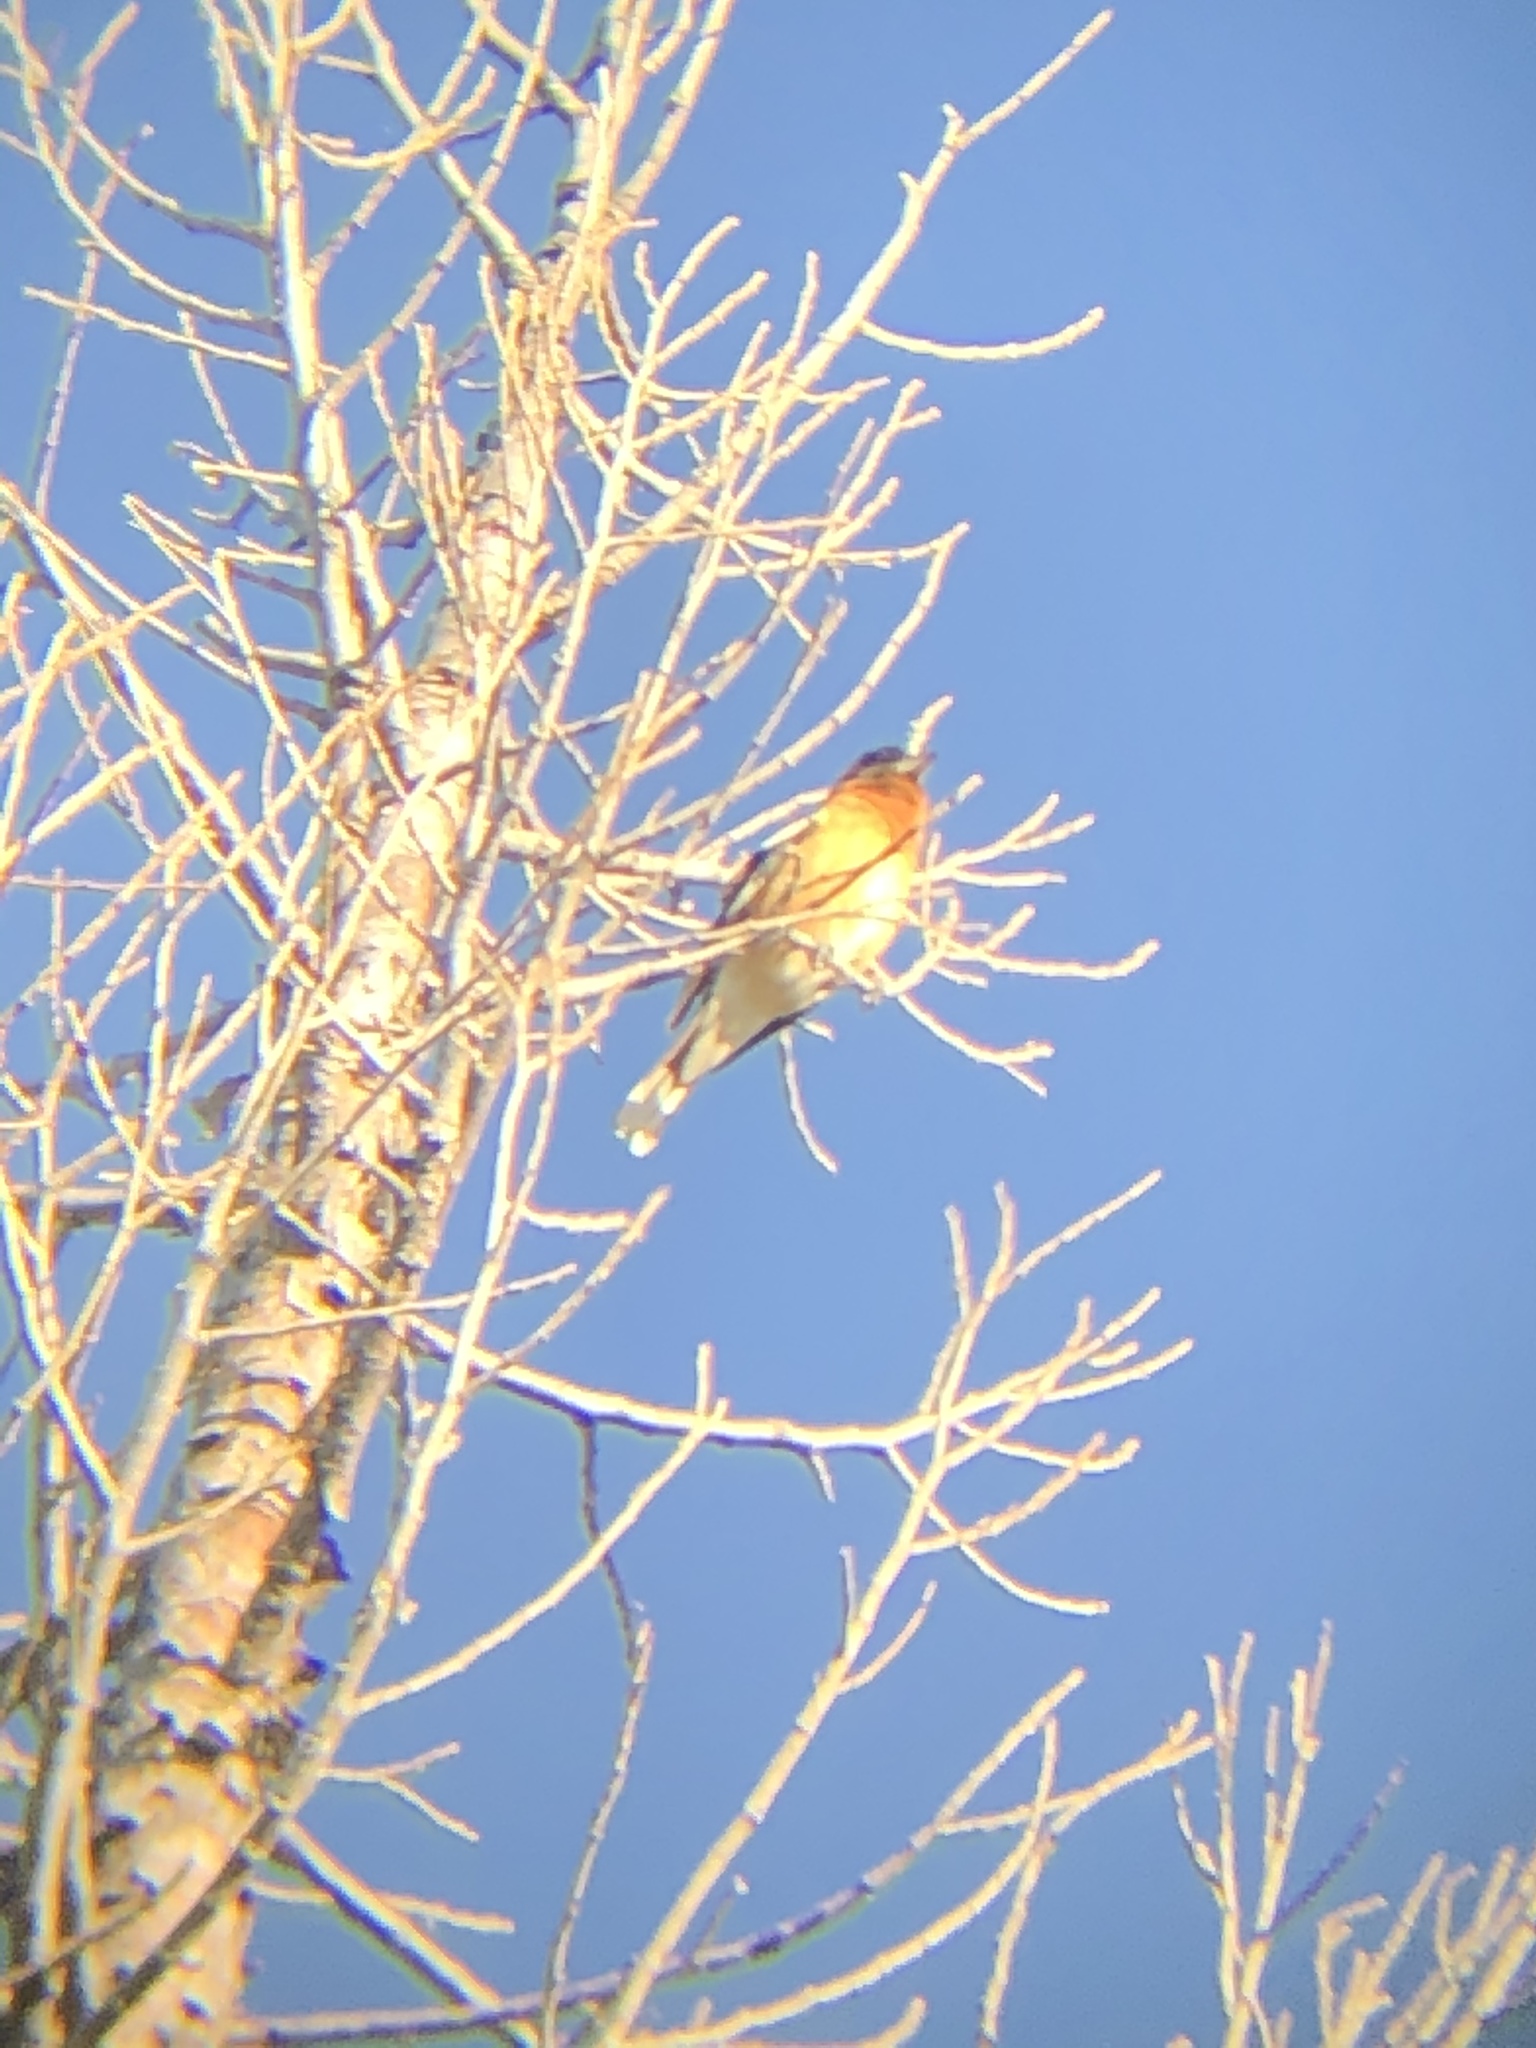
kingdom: Animalia
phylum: Chordata
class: Aves
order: Passeriformes
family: Cardinalidae
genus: Pheucticus
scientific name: Pheucticus melanocephalus
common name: Black-headed grosbeak
